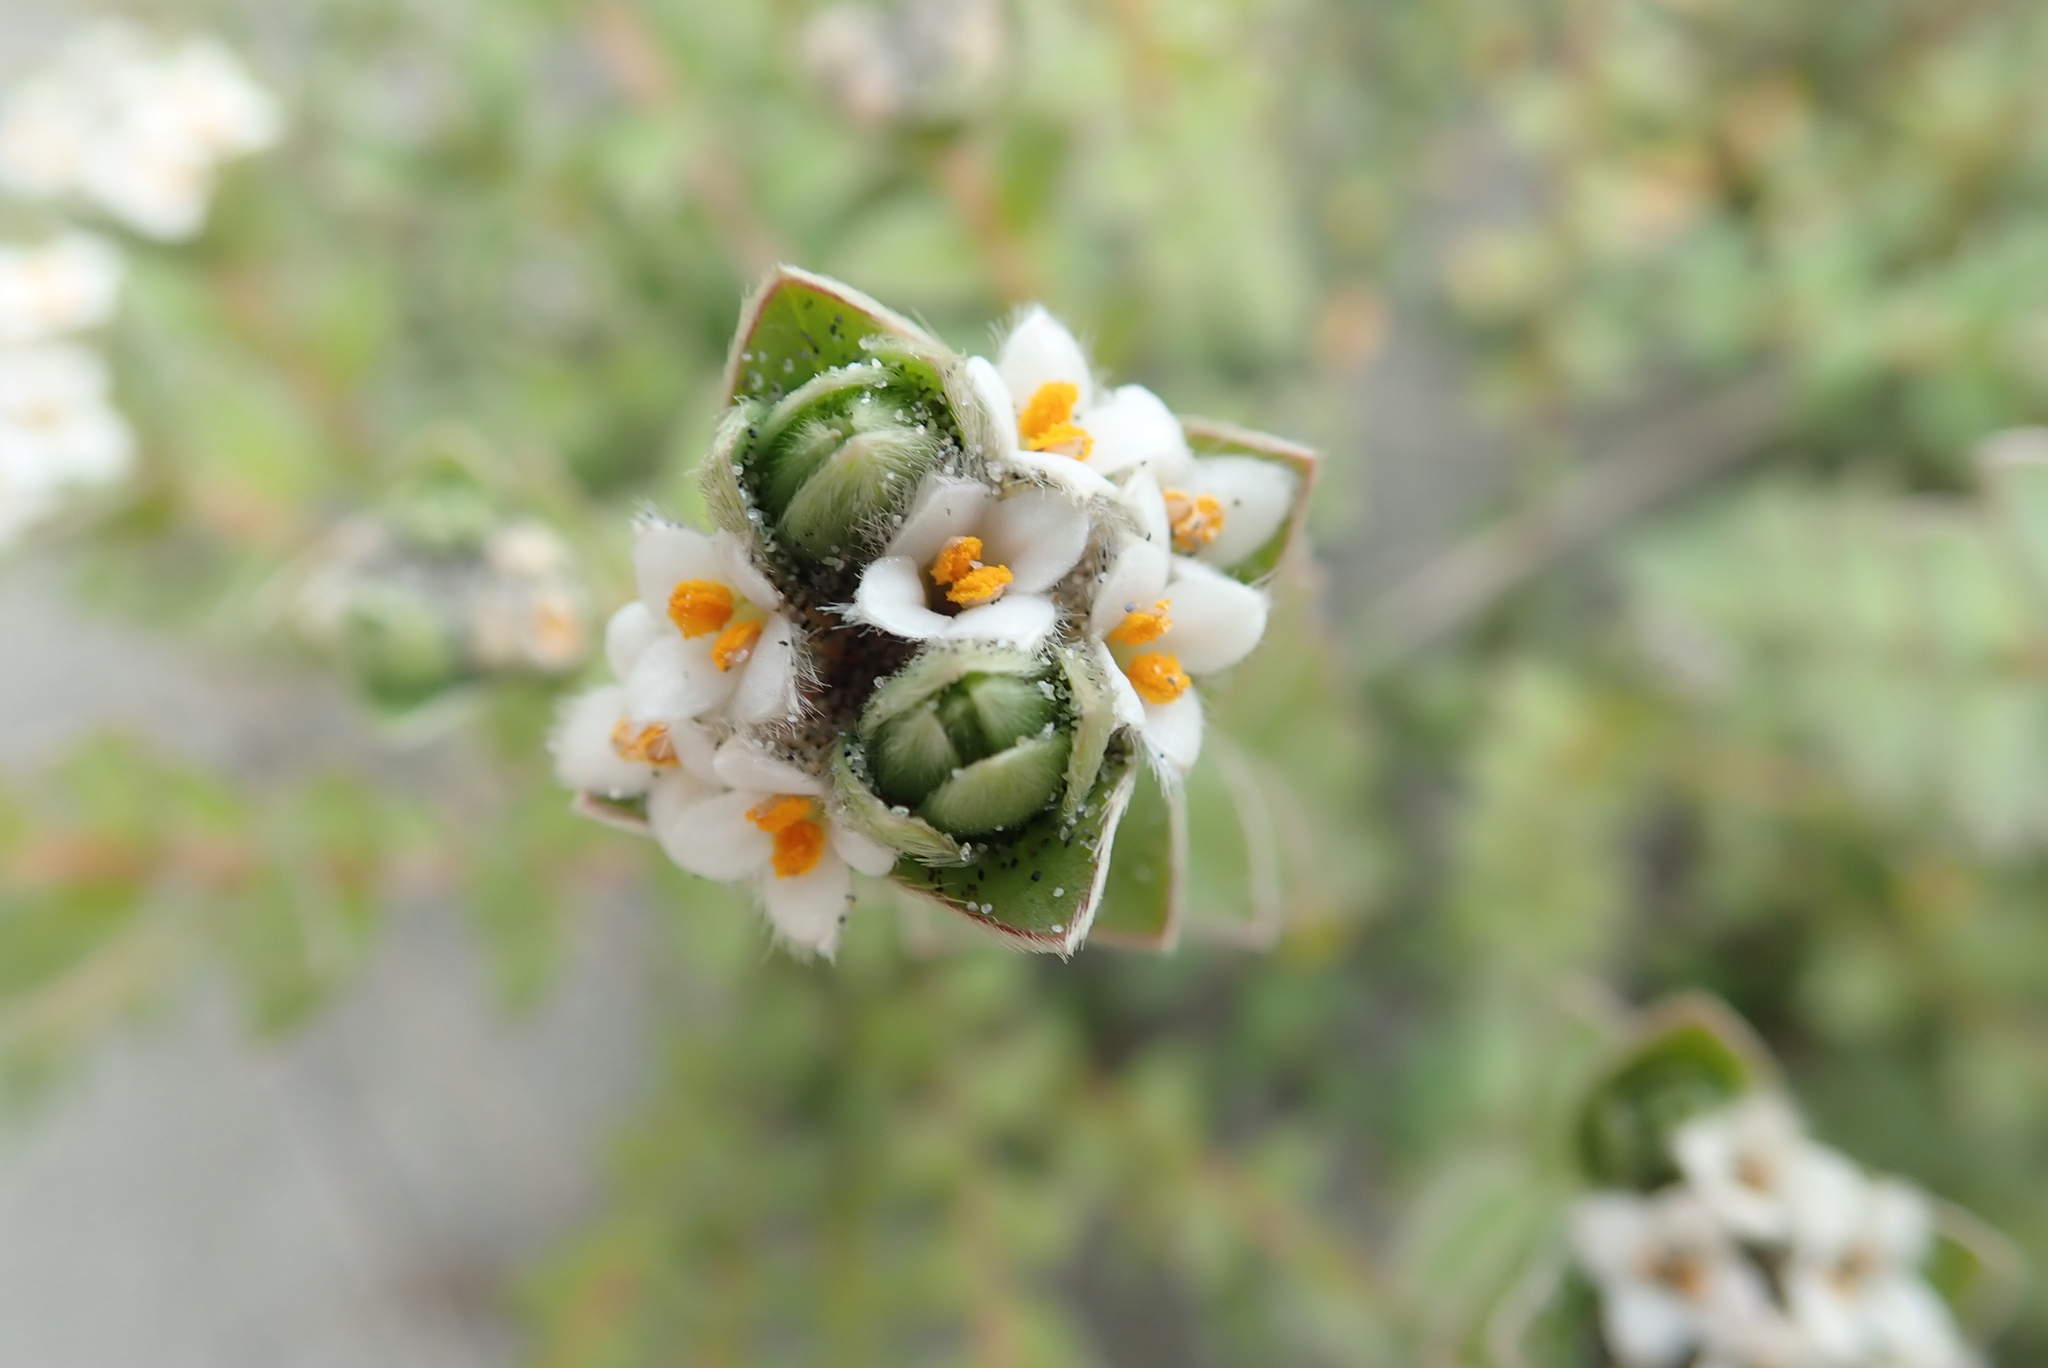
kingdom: Plantae
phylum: Tracheophyta
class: Magnoliopsida
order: Malvales
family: Thymelaeaceae
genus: Pimelea
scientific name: Pimelea villosa
